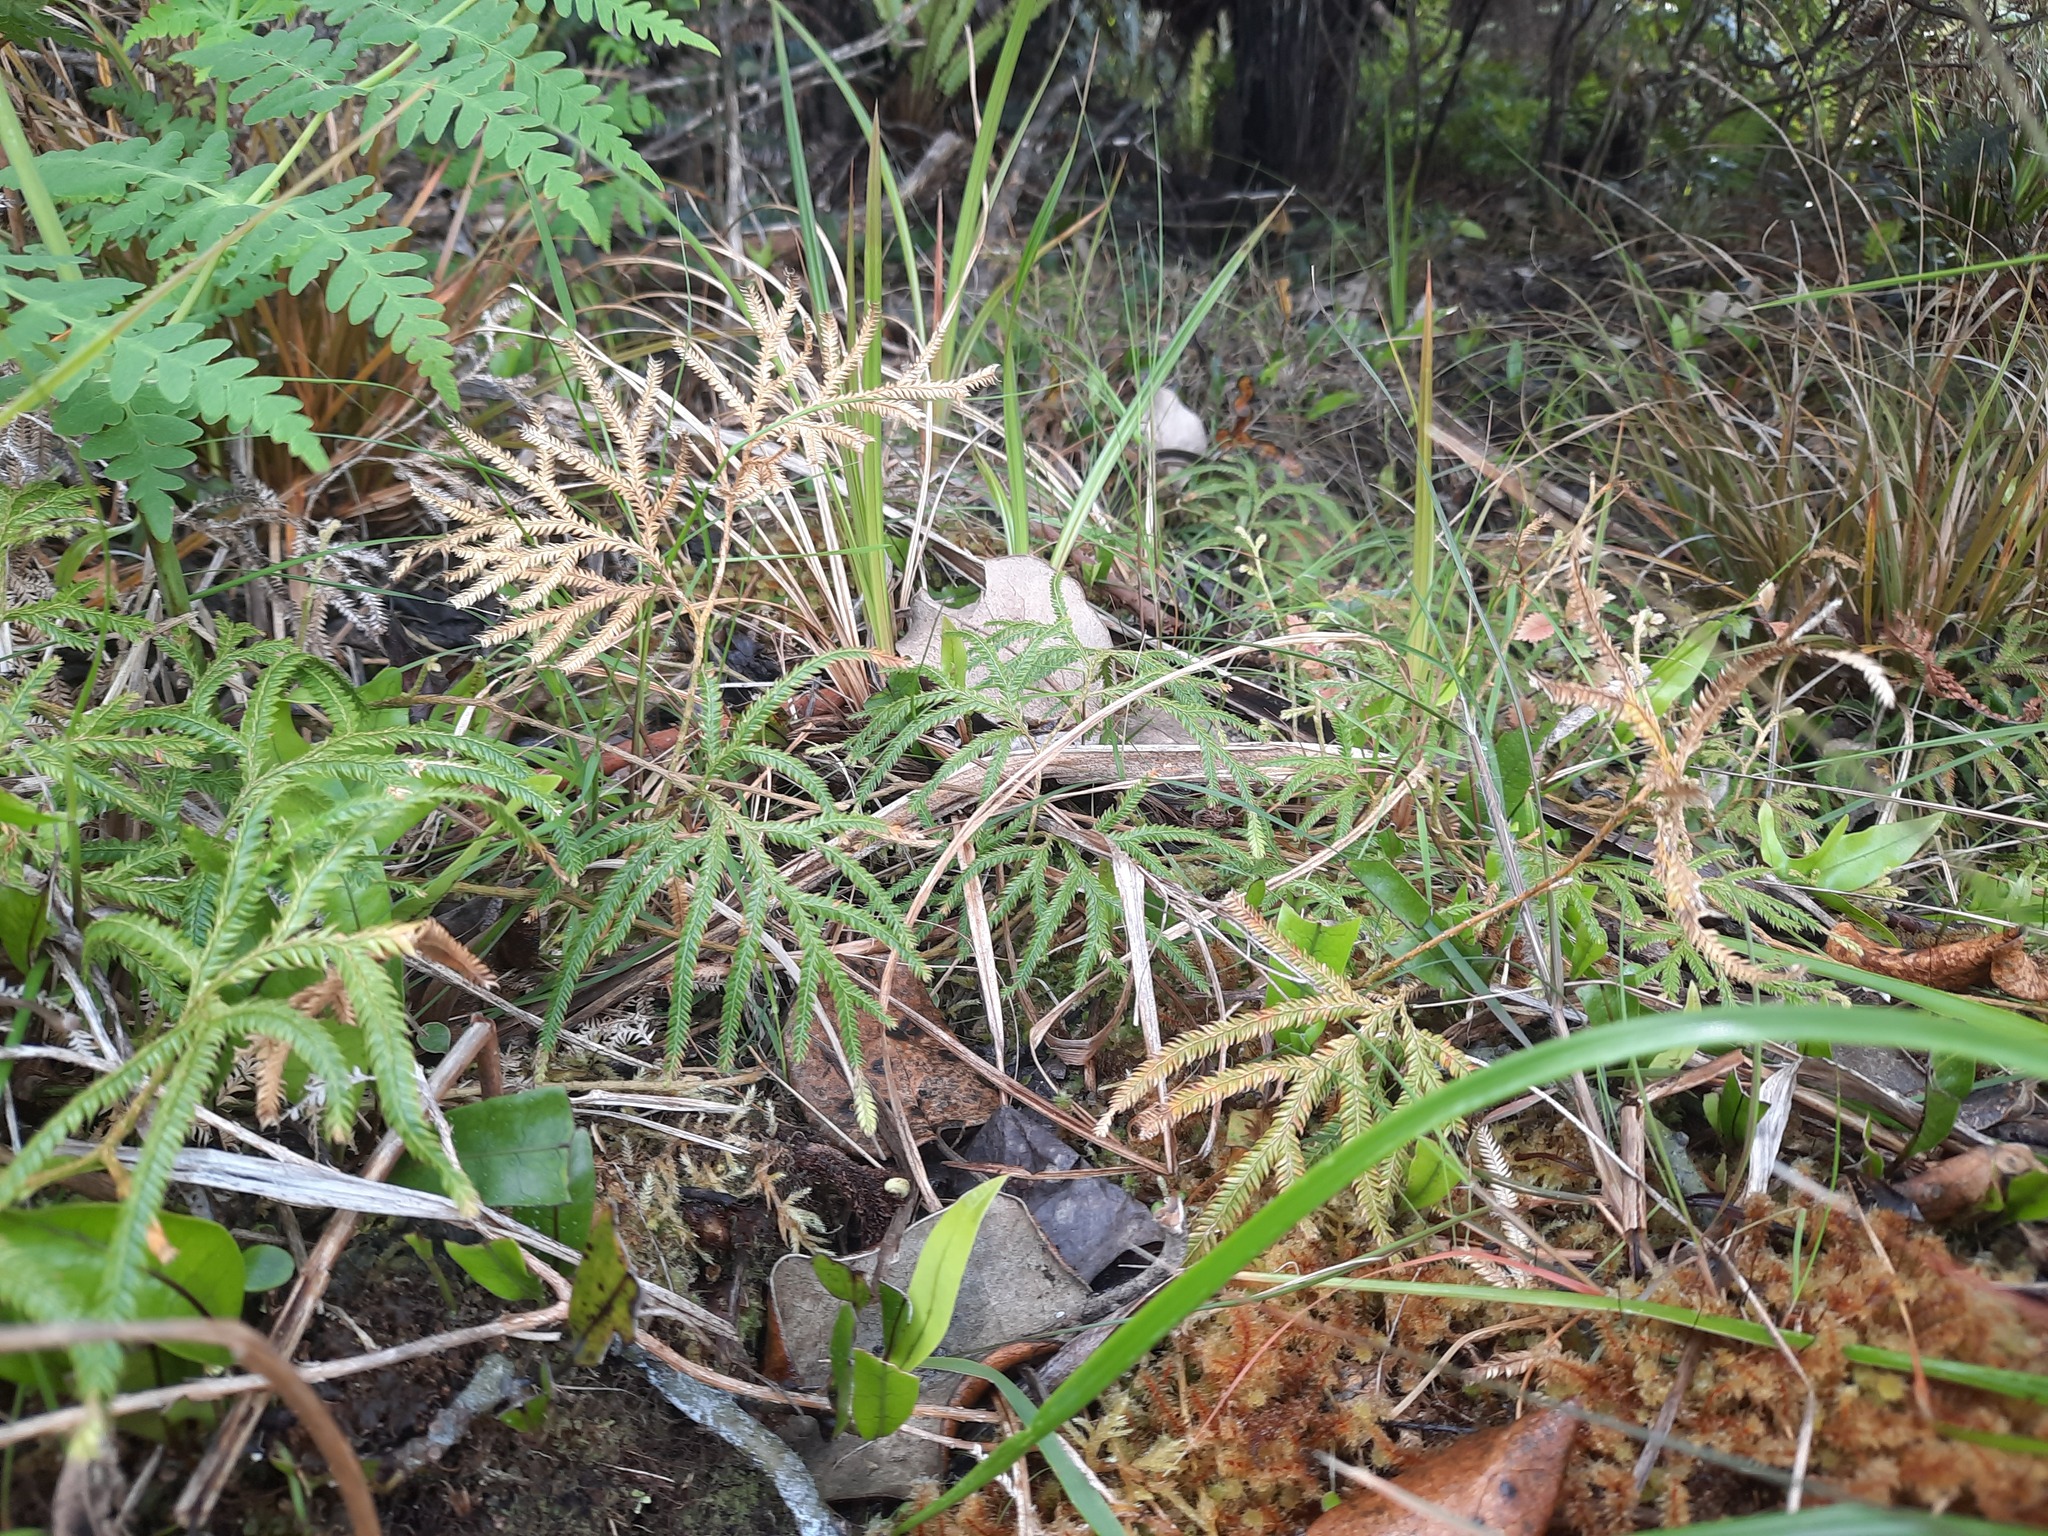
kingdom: Plantae
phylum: Tracheophyta
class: Lycopodiopsida
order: Lycopodiales
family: Lycopodiaceae
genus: Lycopodium
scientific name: Lycopodium volubile
